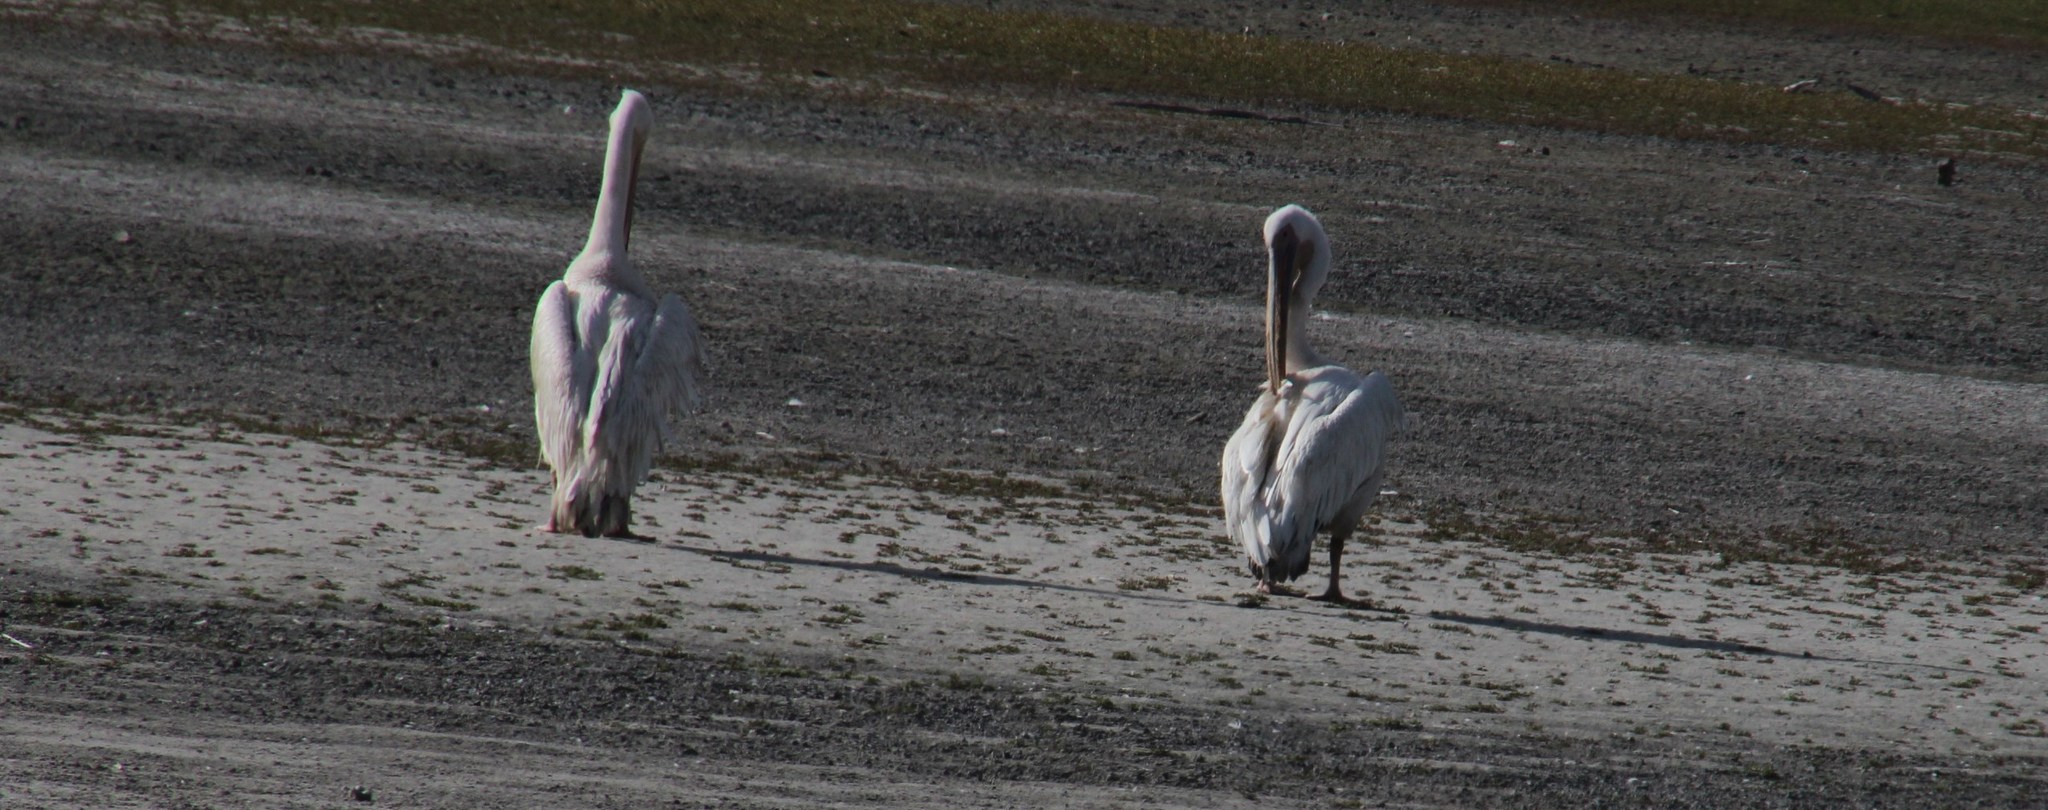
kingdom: Animalia
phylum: Chordata
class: Aves
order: Pelecaniformes
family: Pelecanidae
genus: Pelecanus
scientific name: Pelecanus onocrotalus
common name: Great white pelican
